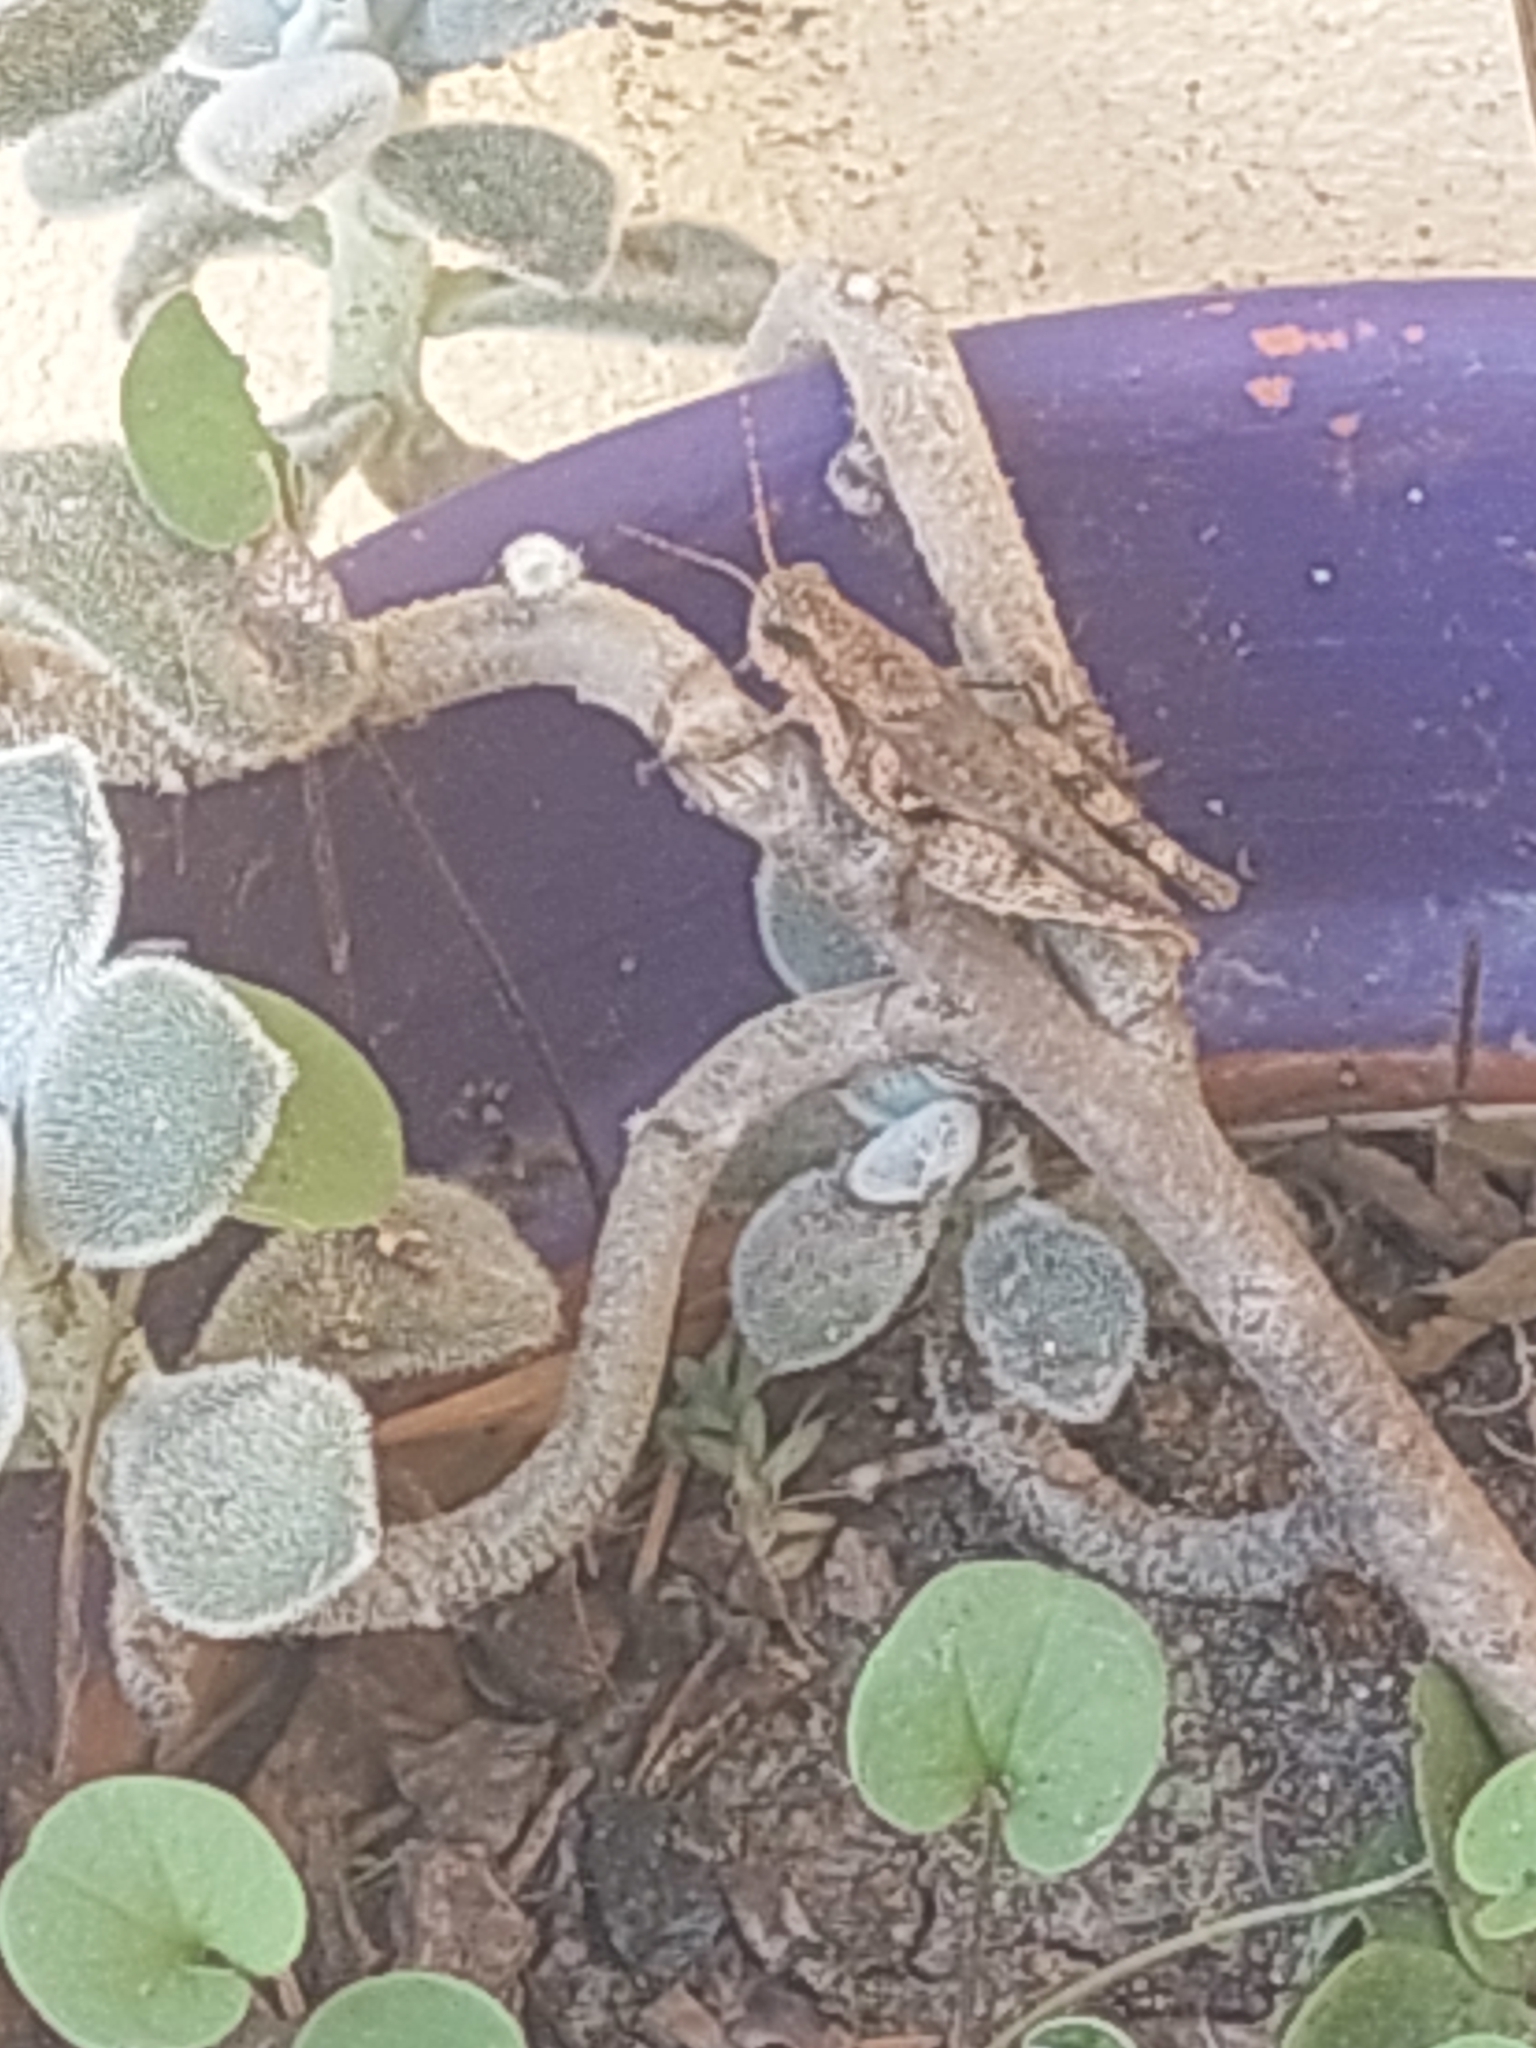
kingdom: Animalia
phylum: Arthropoda
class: Insecta
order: Orthoptera
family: Acrididae
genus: Ronderosia
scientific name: Ronderosia bergii
